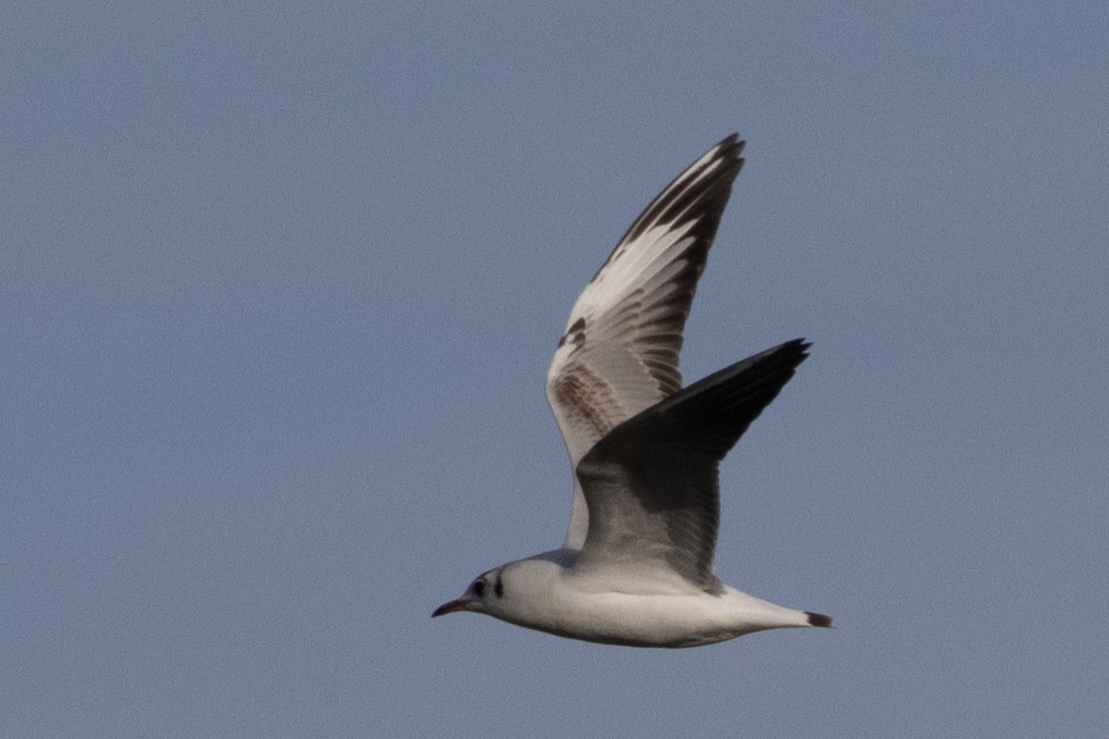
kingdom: Animalia
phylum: Chordata
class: Aves
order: Charadriiformes
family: Laridae
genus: Chroicocephalus
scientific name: Chroicocephalus ridibundus
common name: Black-headed gull
